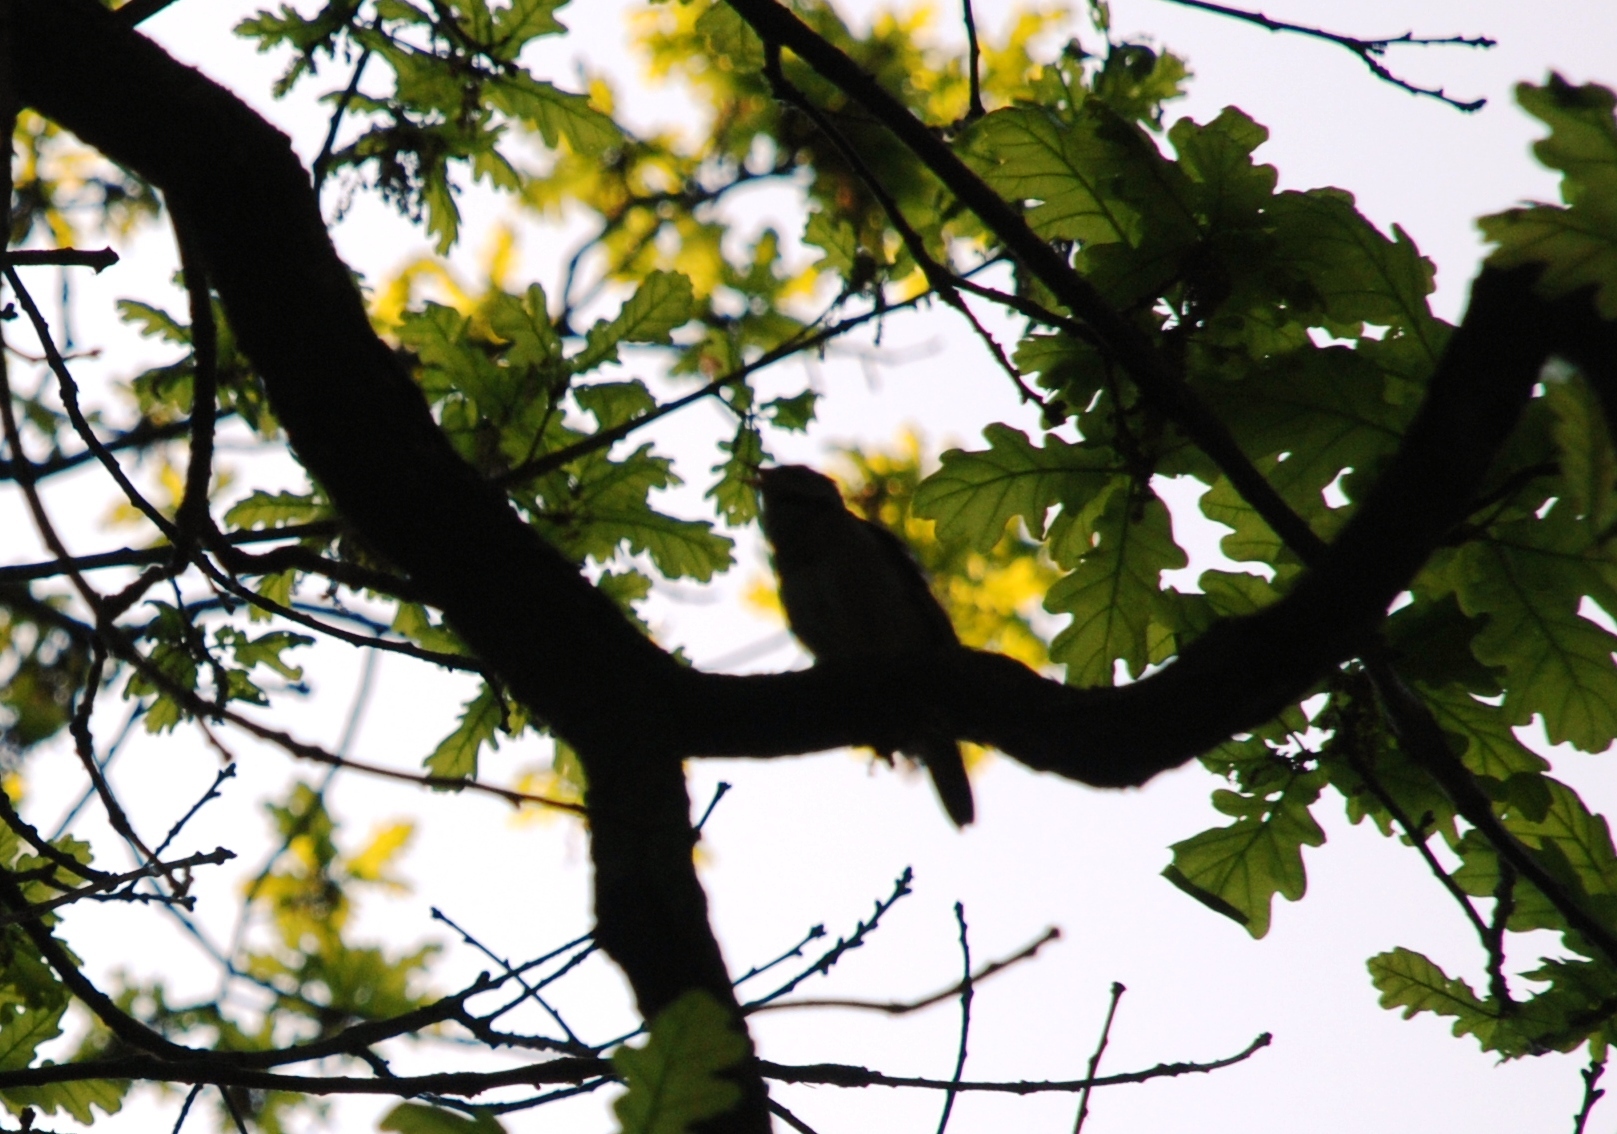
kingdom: Animalia
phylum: Chordata
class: Aves
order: Passeriformes
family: Muscicapidae
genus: Luscinia
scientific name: Luscinia luscinia
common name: Thrush nightingale
